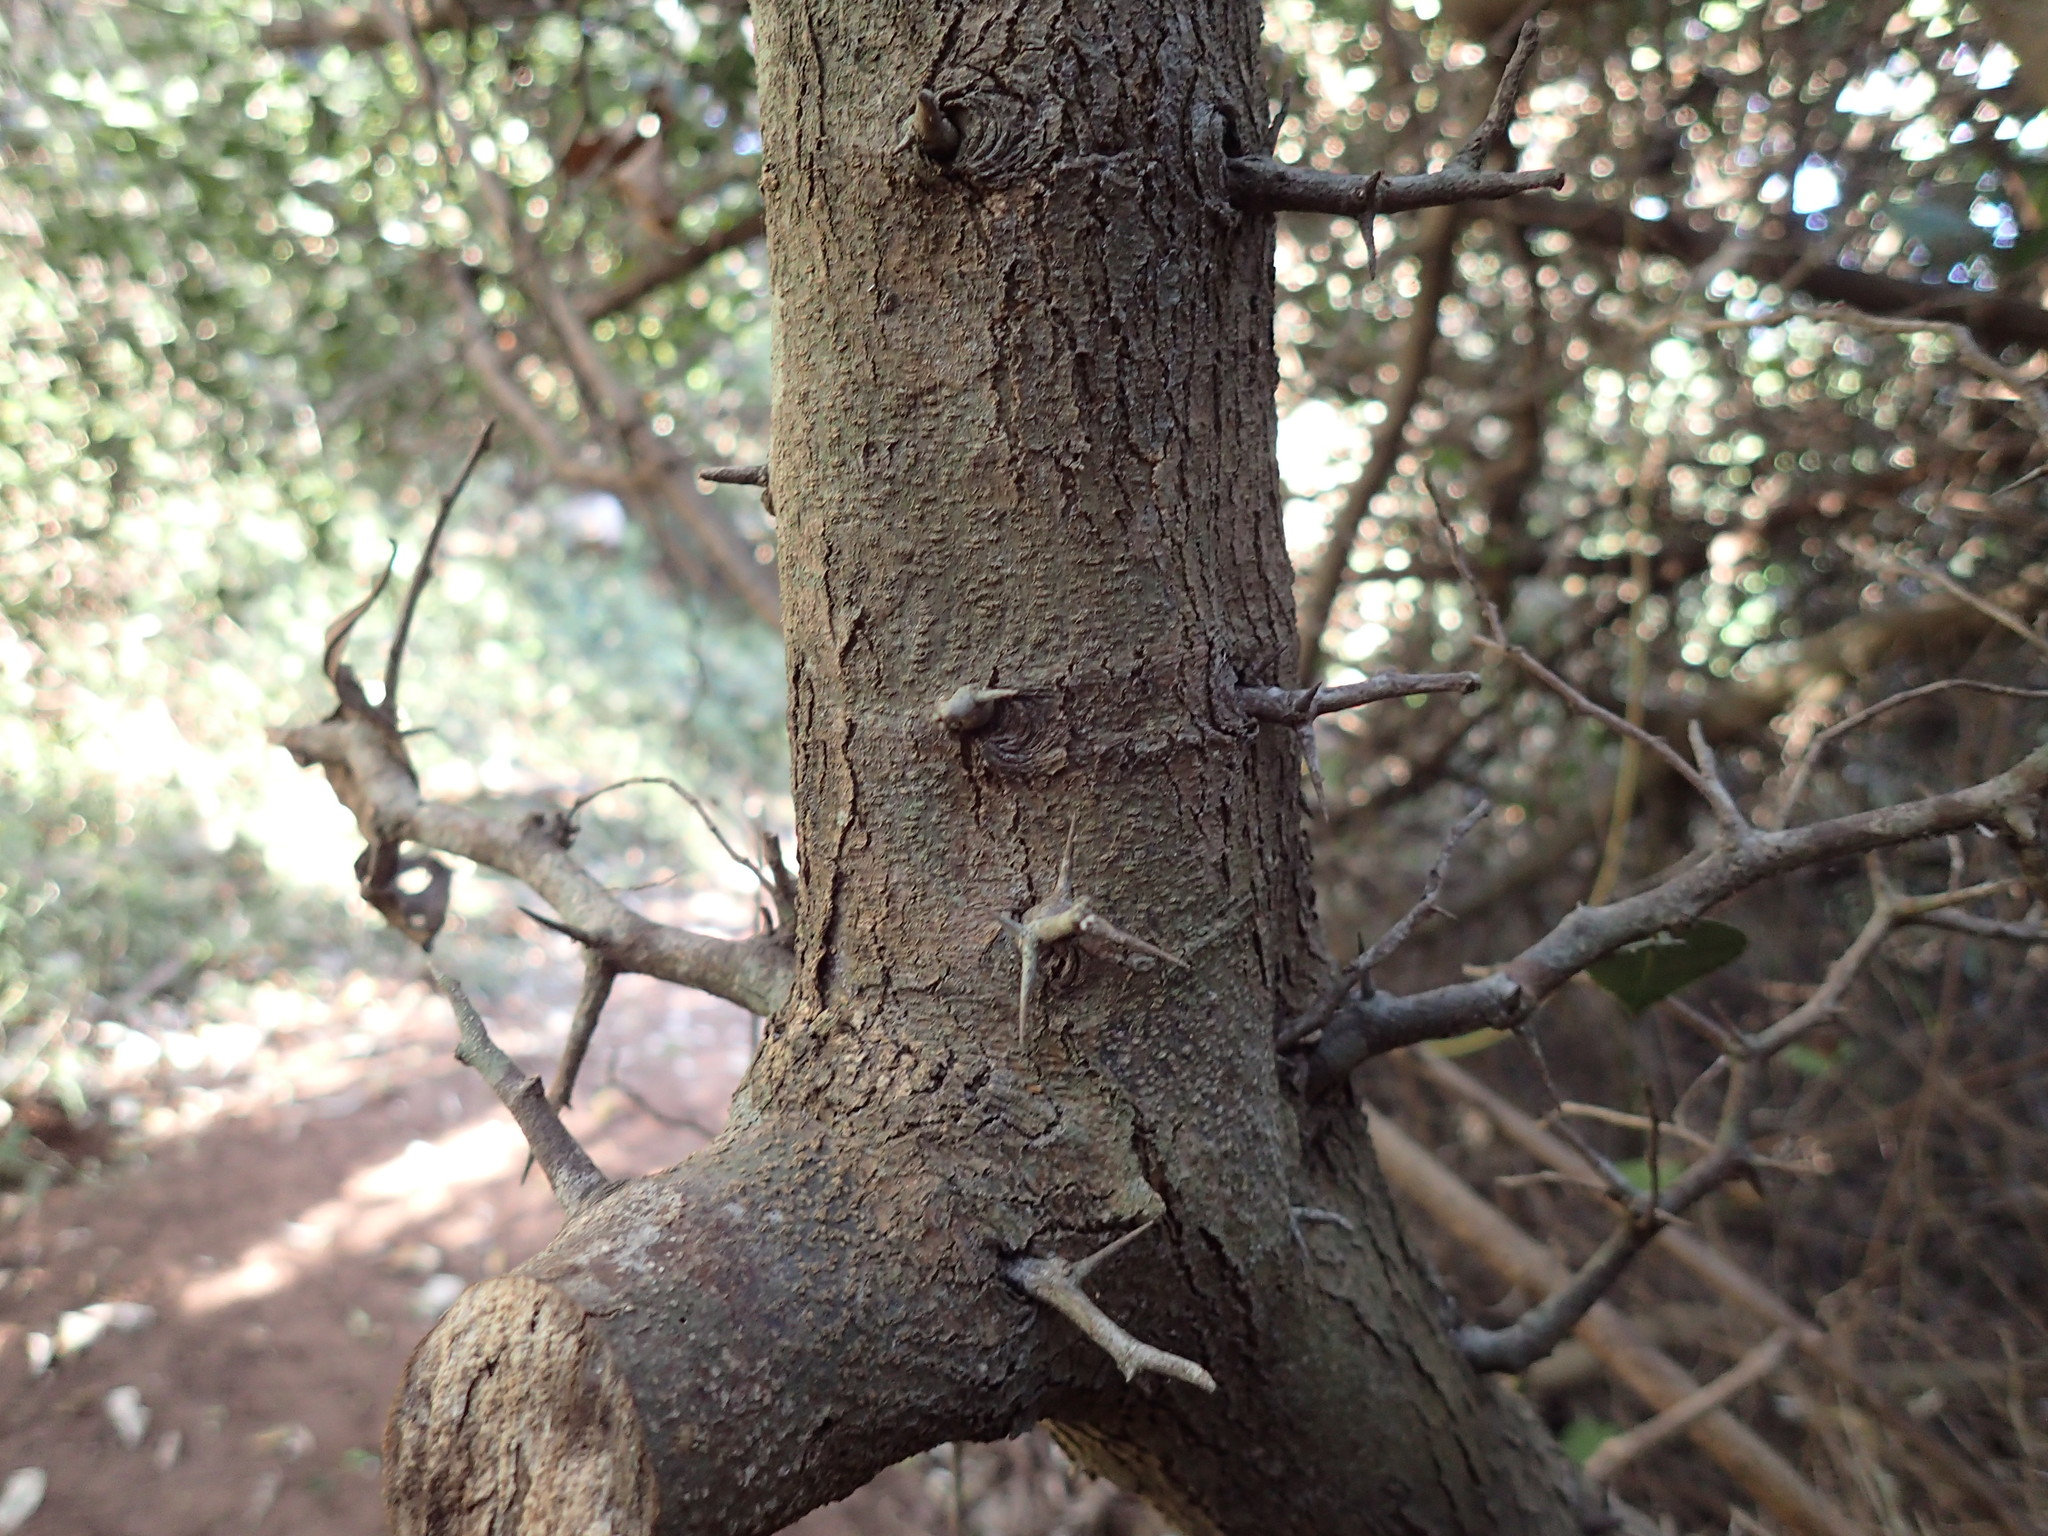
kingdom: Plantae
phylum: Tracheophyta
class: Magnoliopsida
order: Rosales
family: Cannabaceae
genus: Chaetachme
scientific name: Chaetachme aristata
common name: Thorny elm
